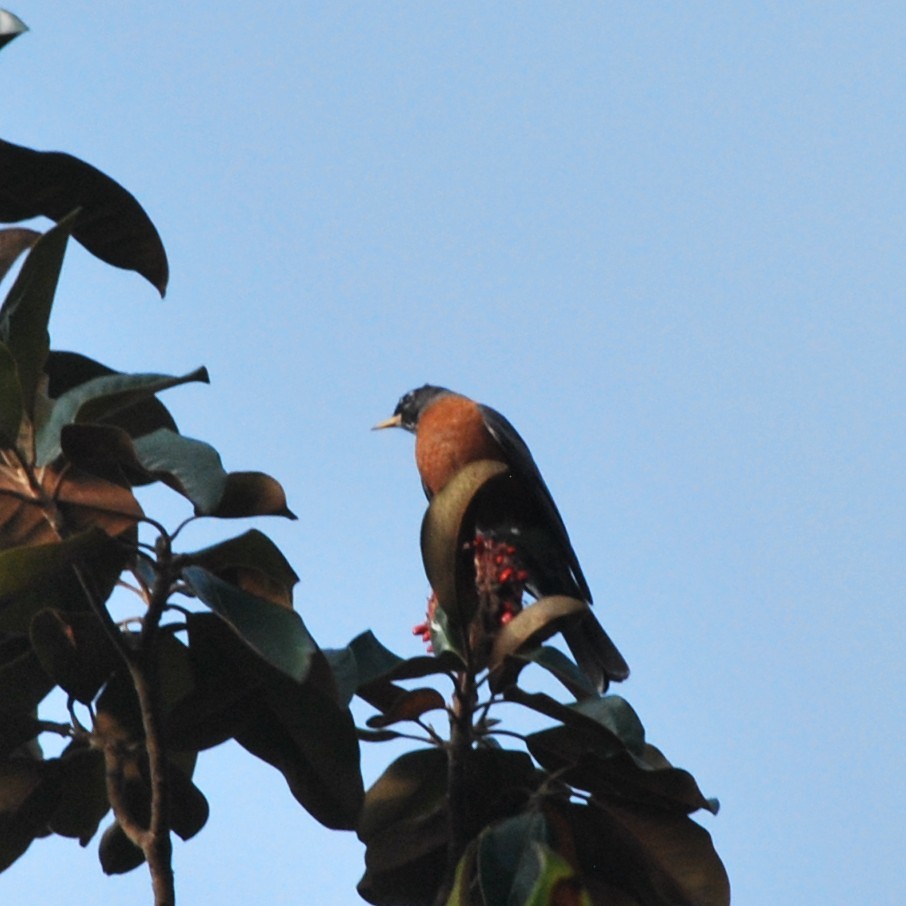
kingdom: Animalia
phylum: Chordata
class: Aves
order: Passeriformes
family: Turdidae
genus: Turdus
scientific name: Turdus migratorius
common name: American robin
